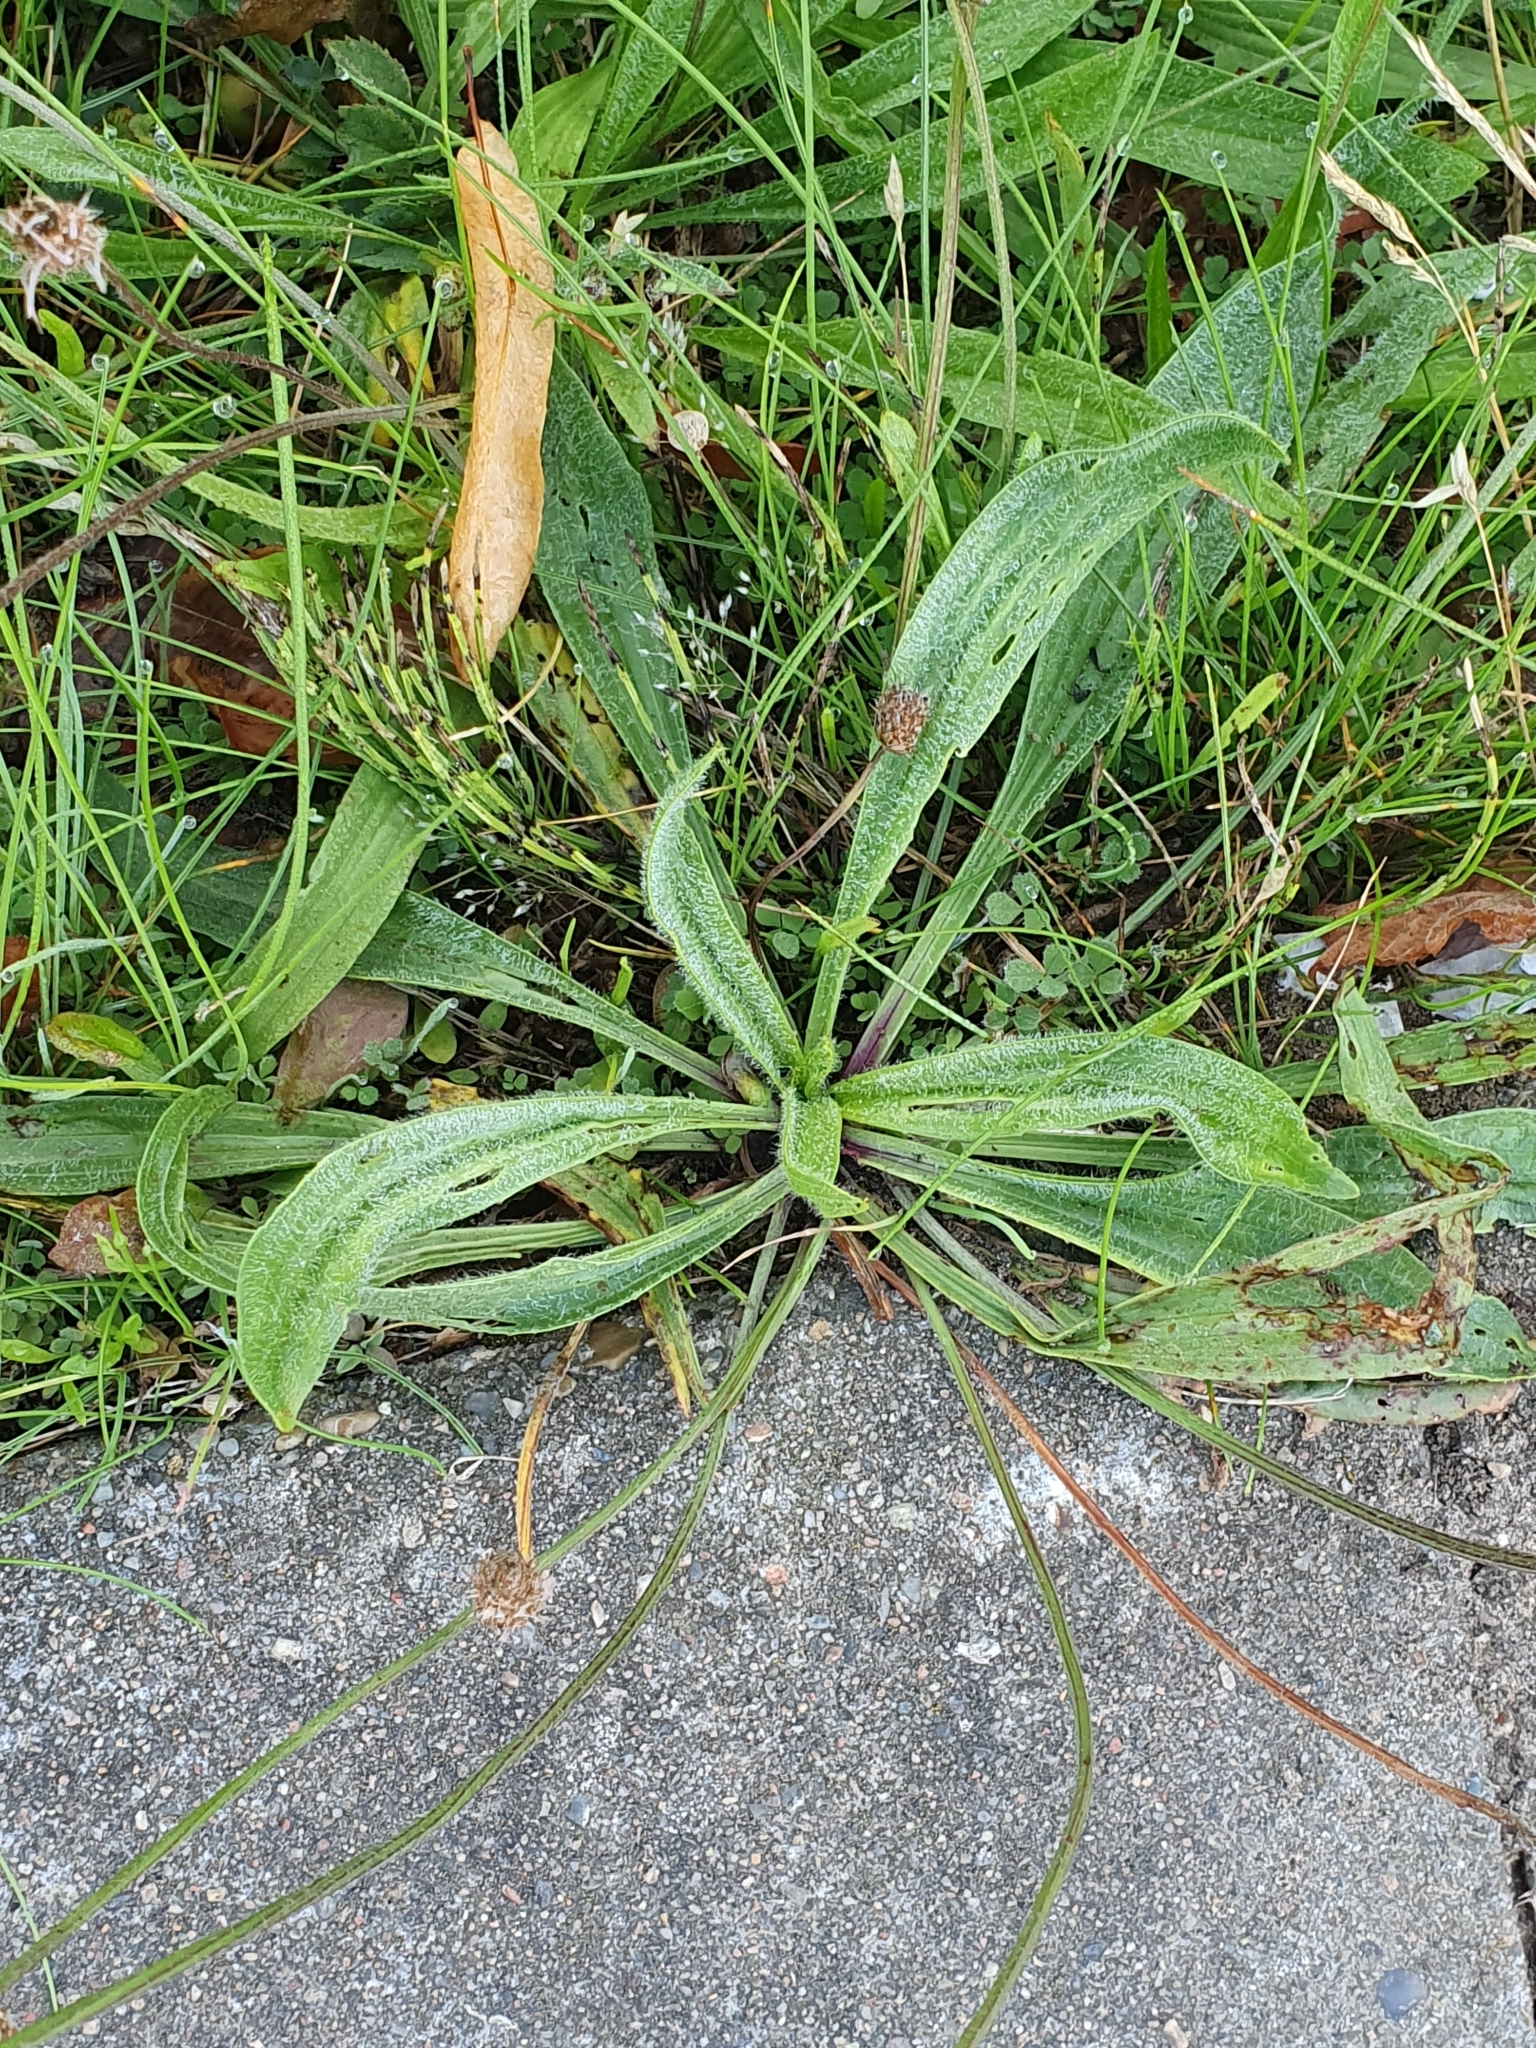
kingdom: Plantae
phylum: Tracheophyta
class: Magnoliopsida
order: Lamiales
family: Plantaginaceae
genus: Plantago
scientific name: Plantago lanceolata
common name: Ribwort plantain
